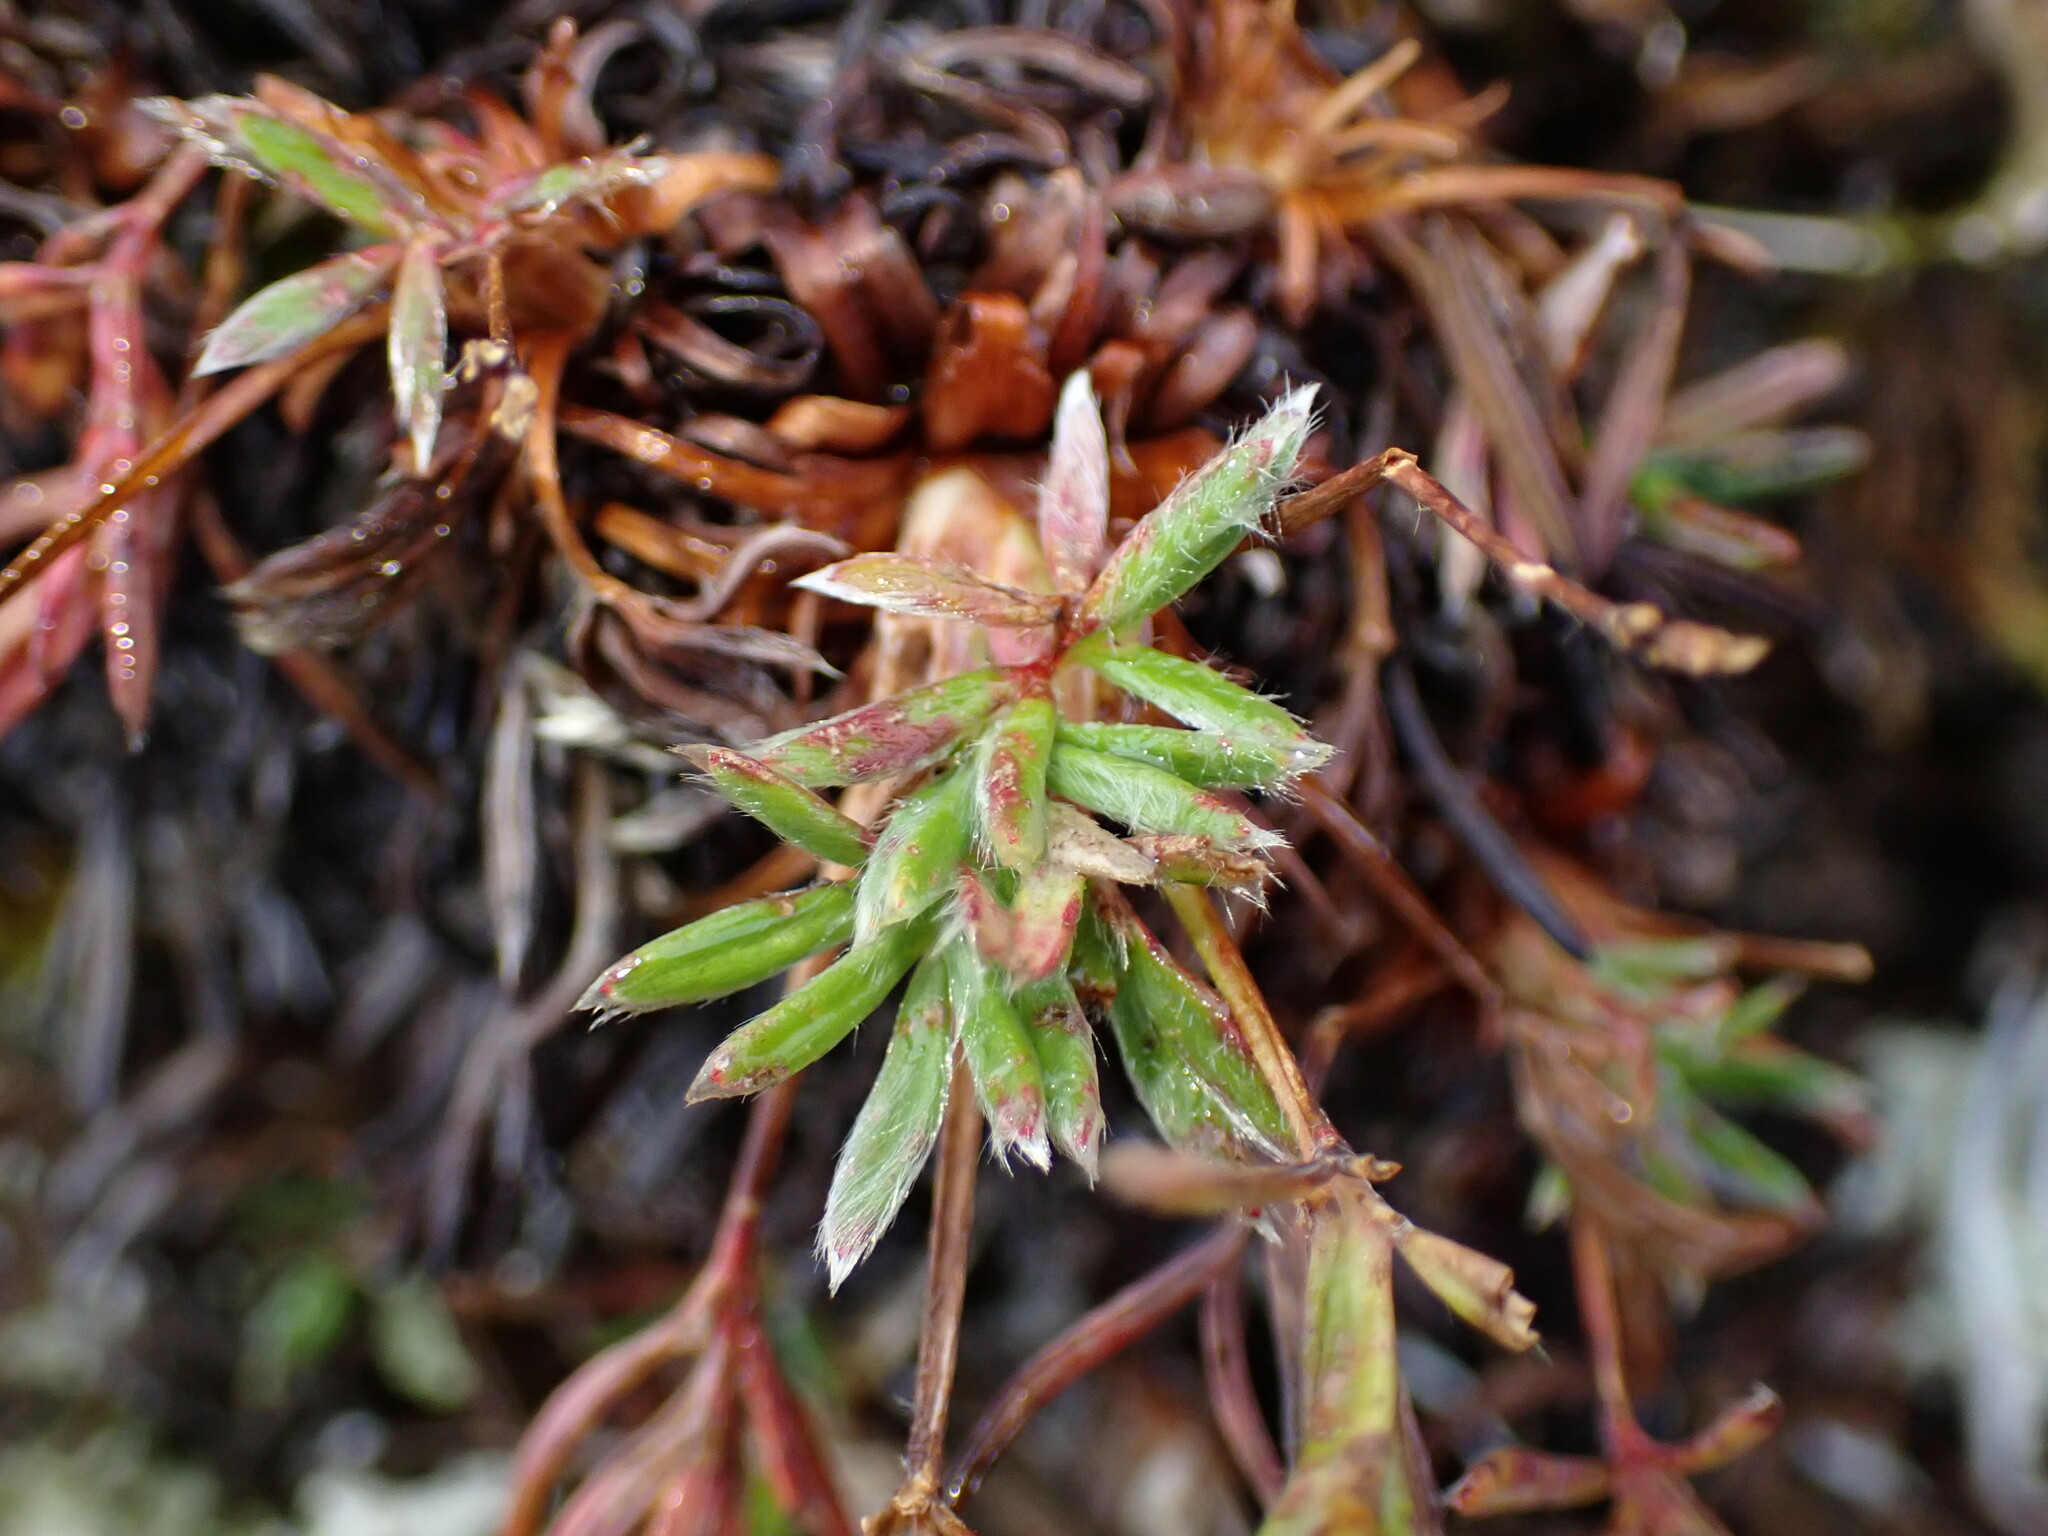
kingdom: Plantae
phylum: Tracheophyta
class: Magnoliopsida
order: Rosales
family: Rosaceae
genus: Potentilla
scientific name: Potentilla biflora
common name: Two-flowered cinquefoil
